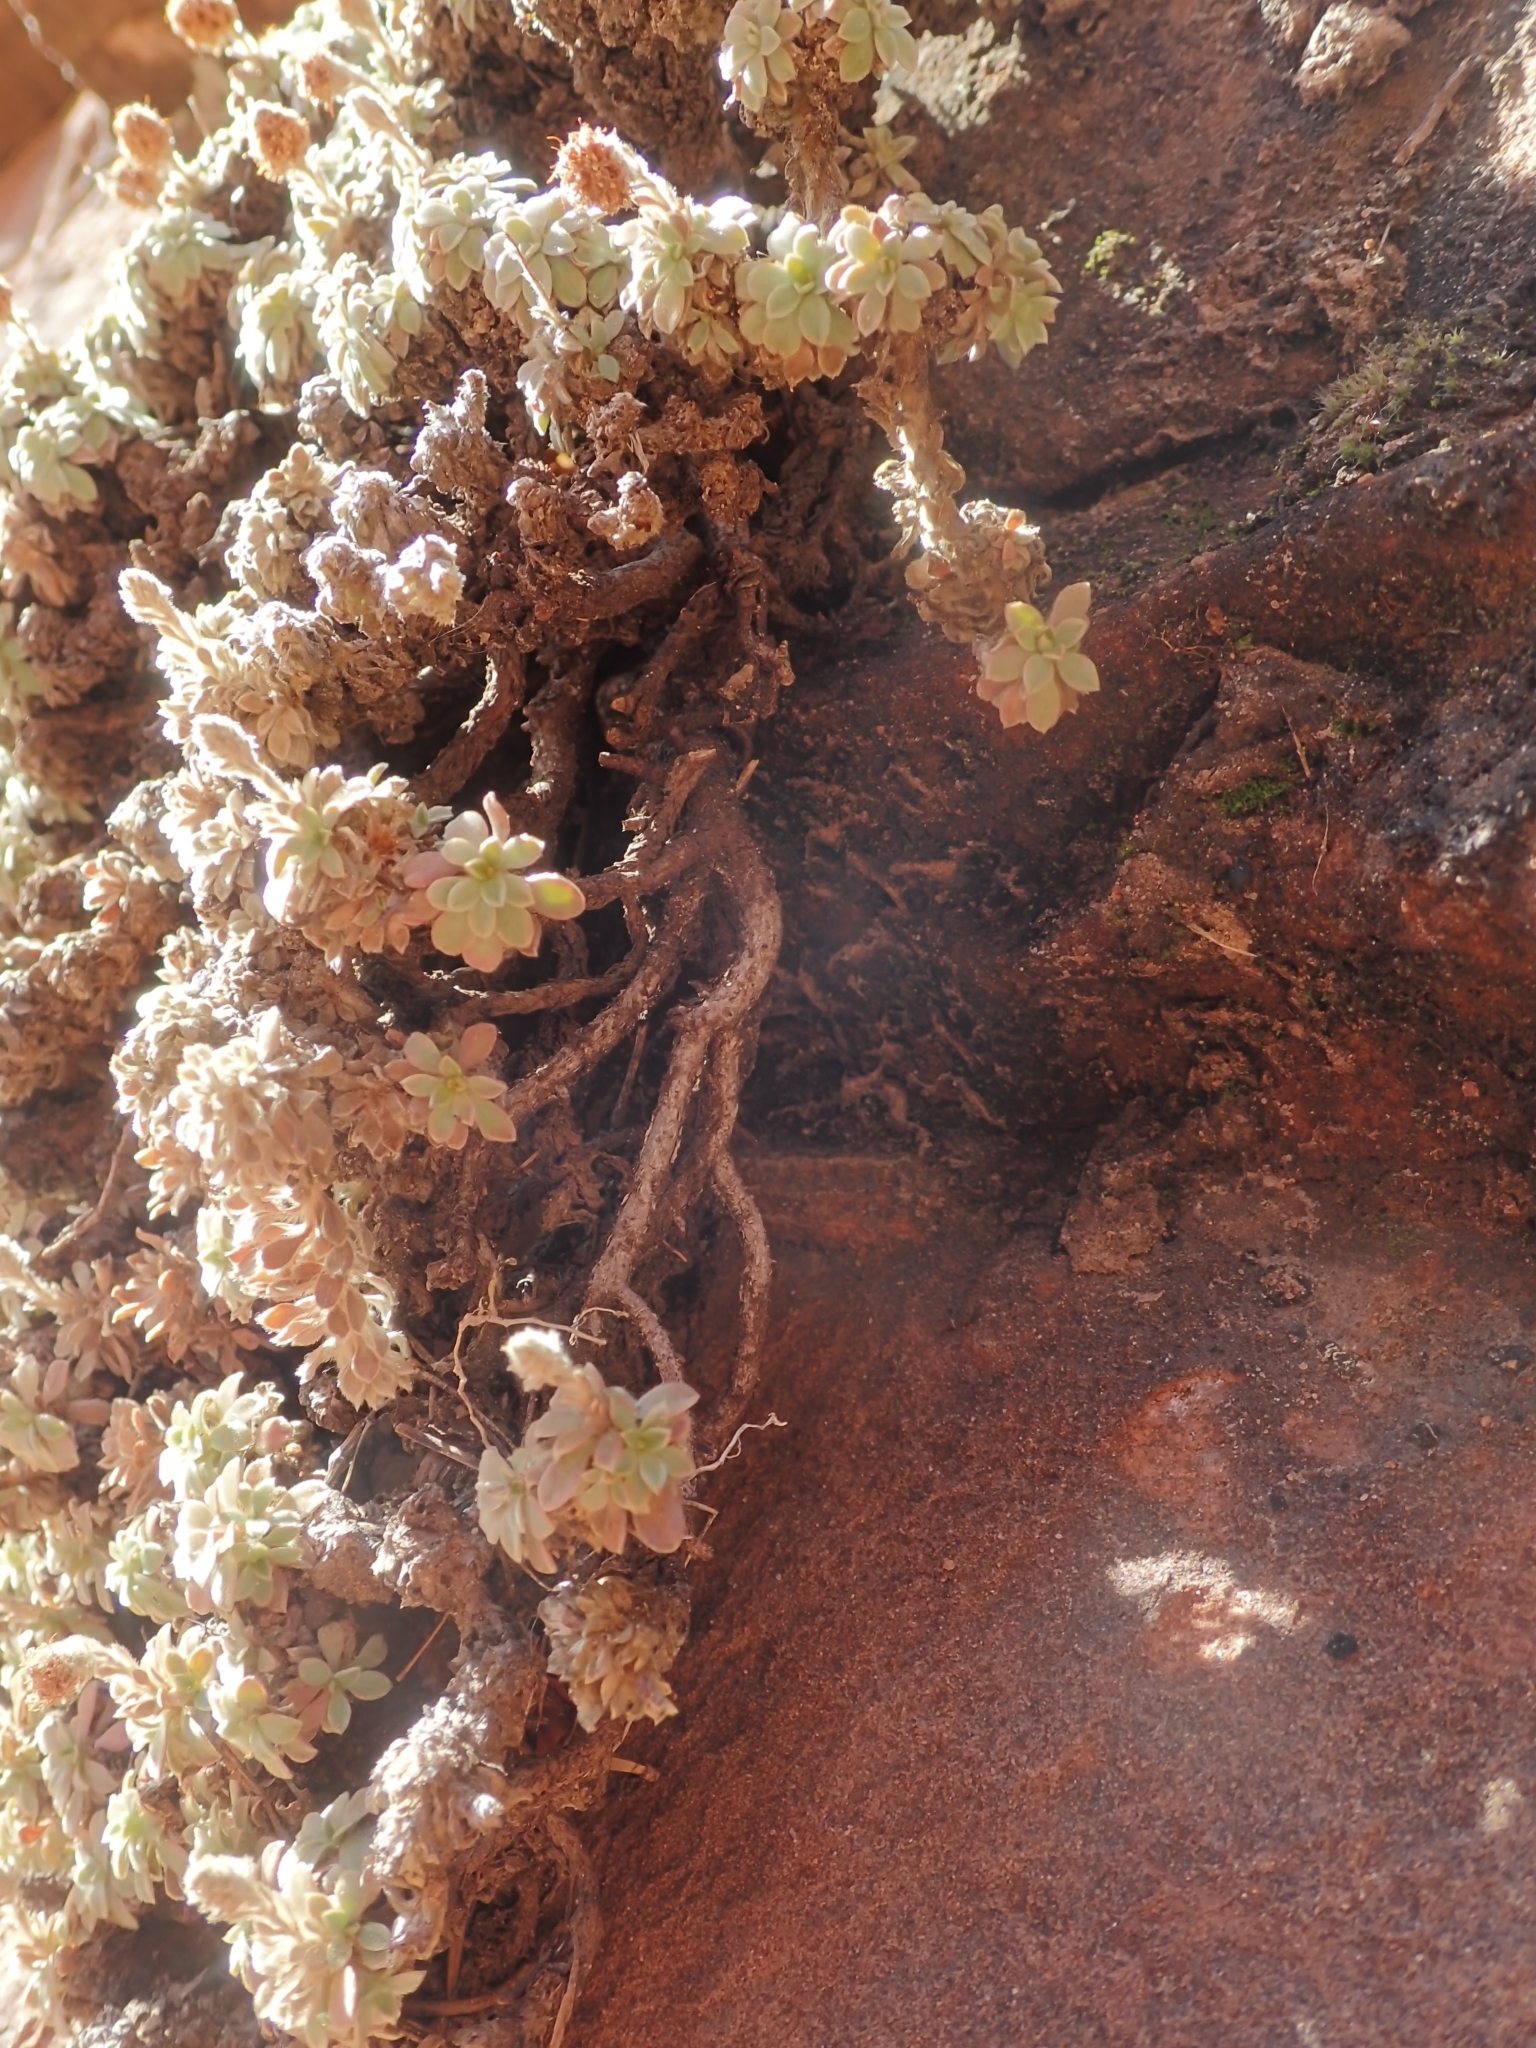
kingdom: Plantae
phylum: Tracheophyta
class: Magnoliopsida
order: Rosales
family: Rosaceae
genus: Petrophytum
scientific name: Petrophytum caespitosum
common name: Mat rockspirea
